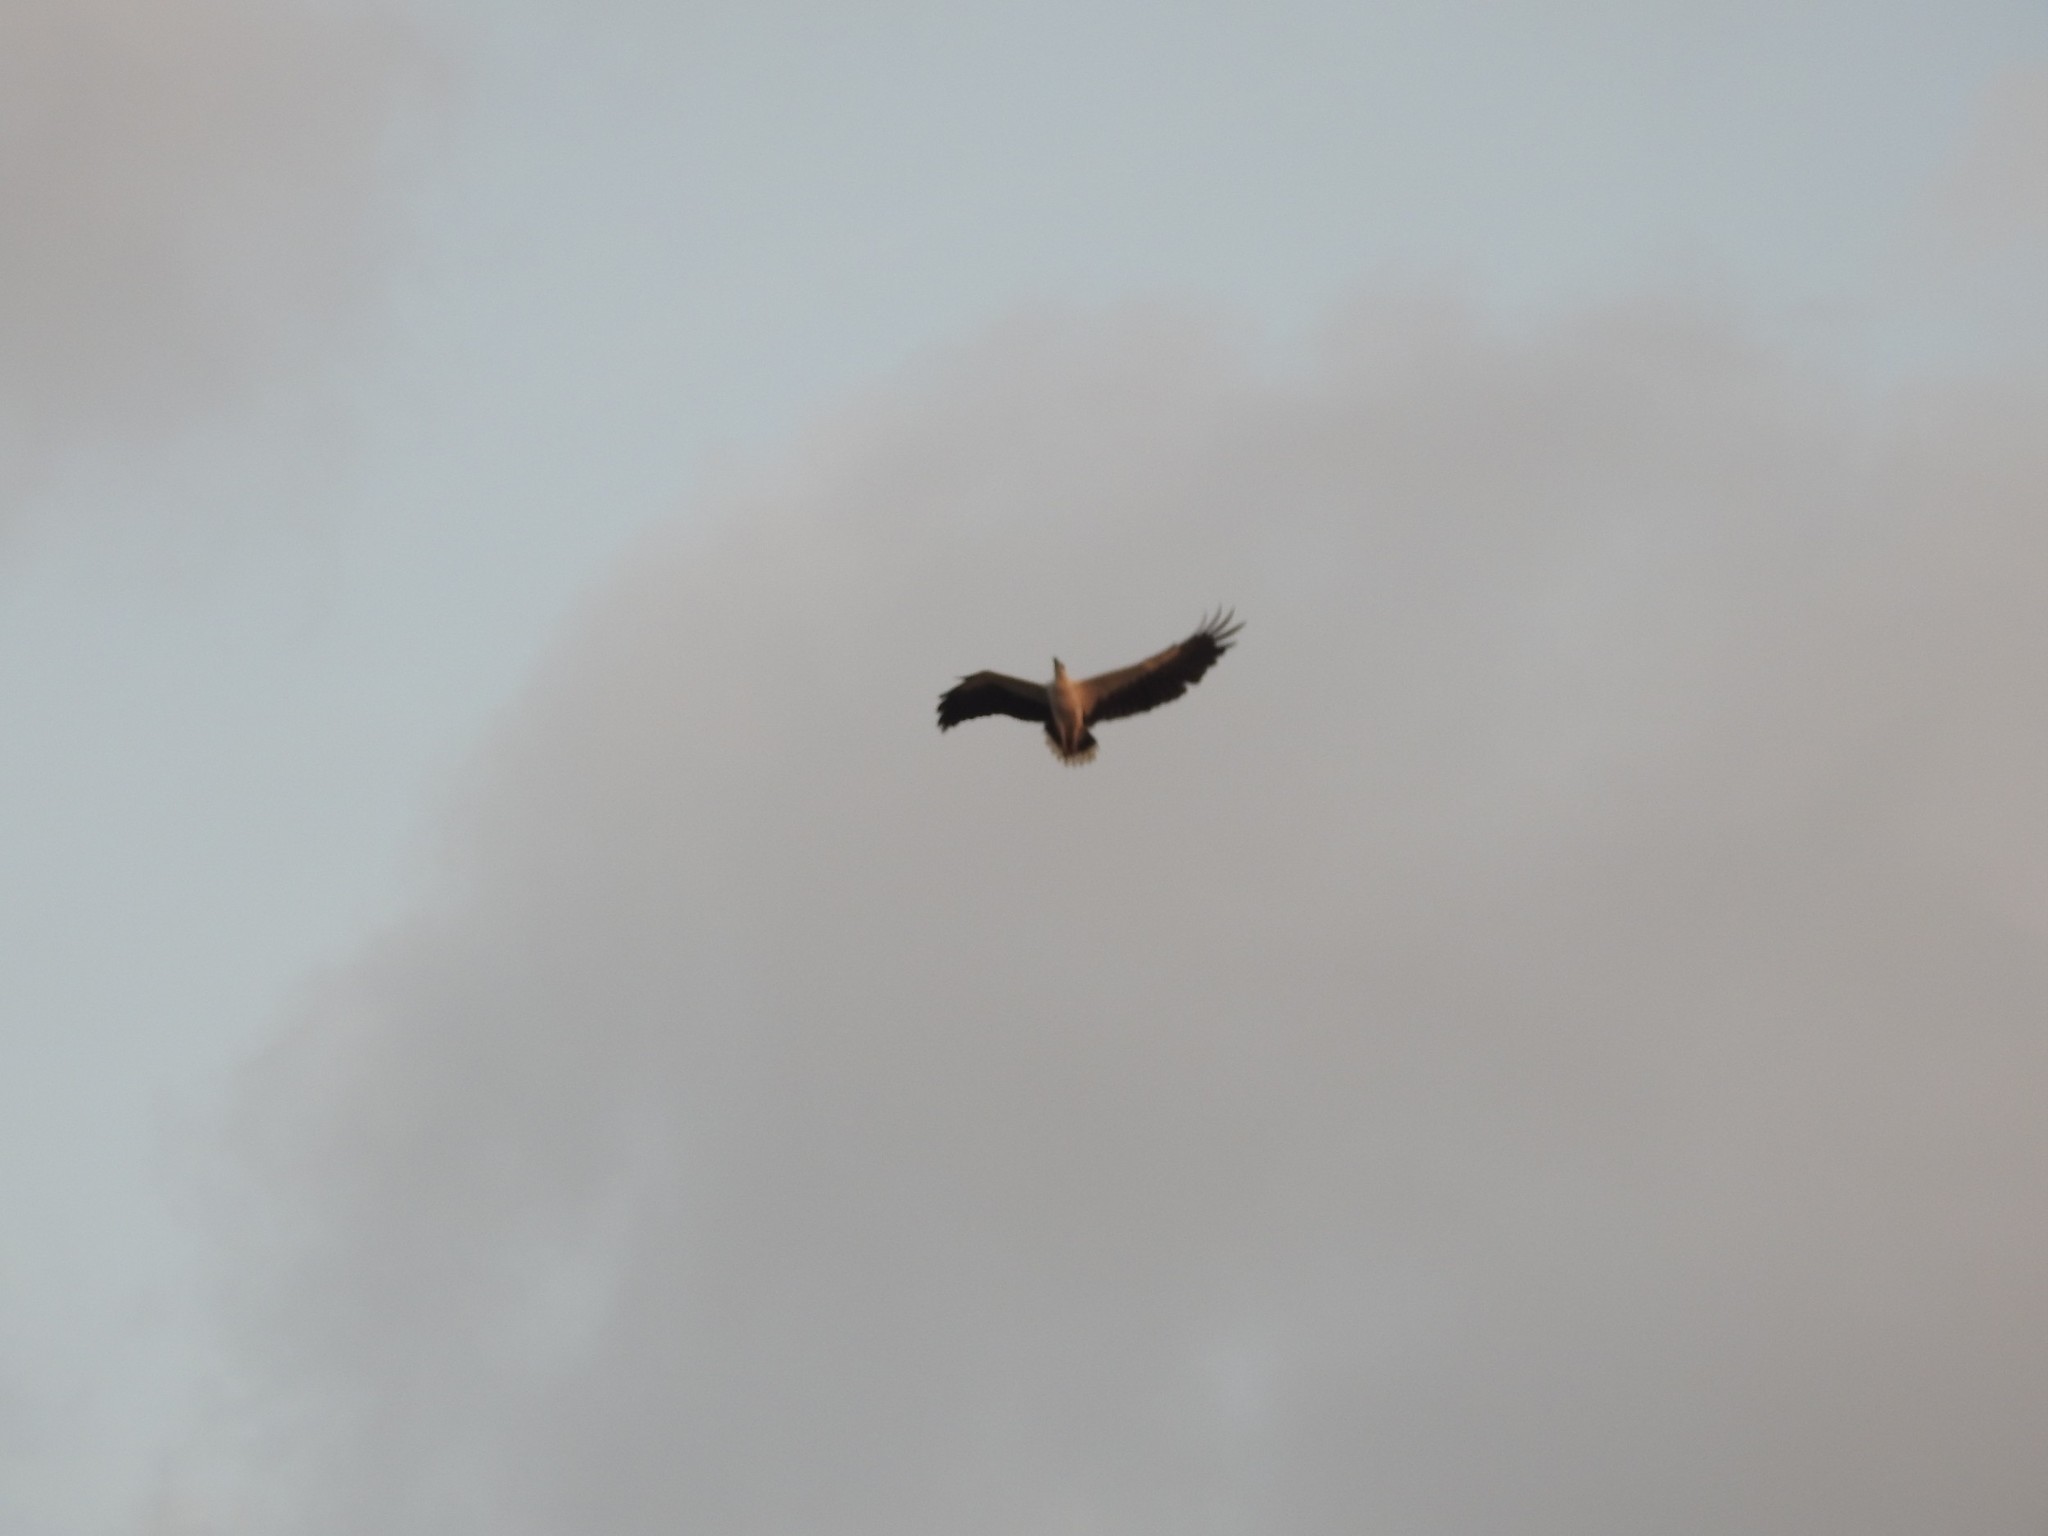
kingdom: Animalia
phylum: Chordata
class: Aves
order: Accipitriformes
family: Accipitridae
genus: Haliaeetus
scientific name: Haliaeetus leucogaster
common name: White-bellied sea eagle
